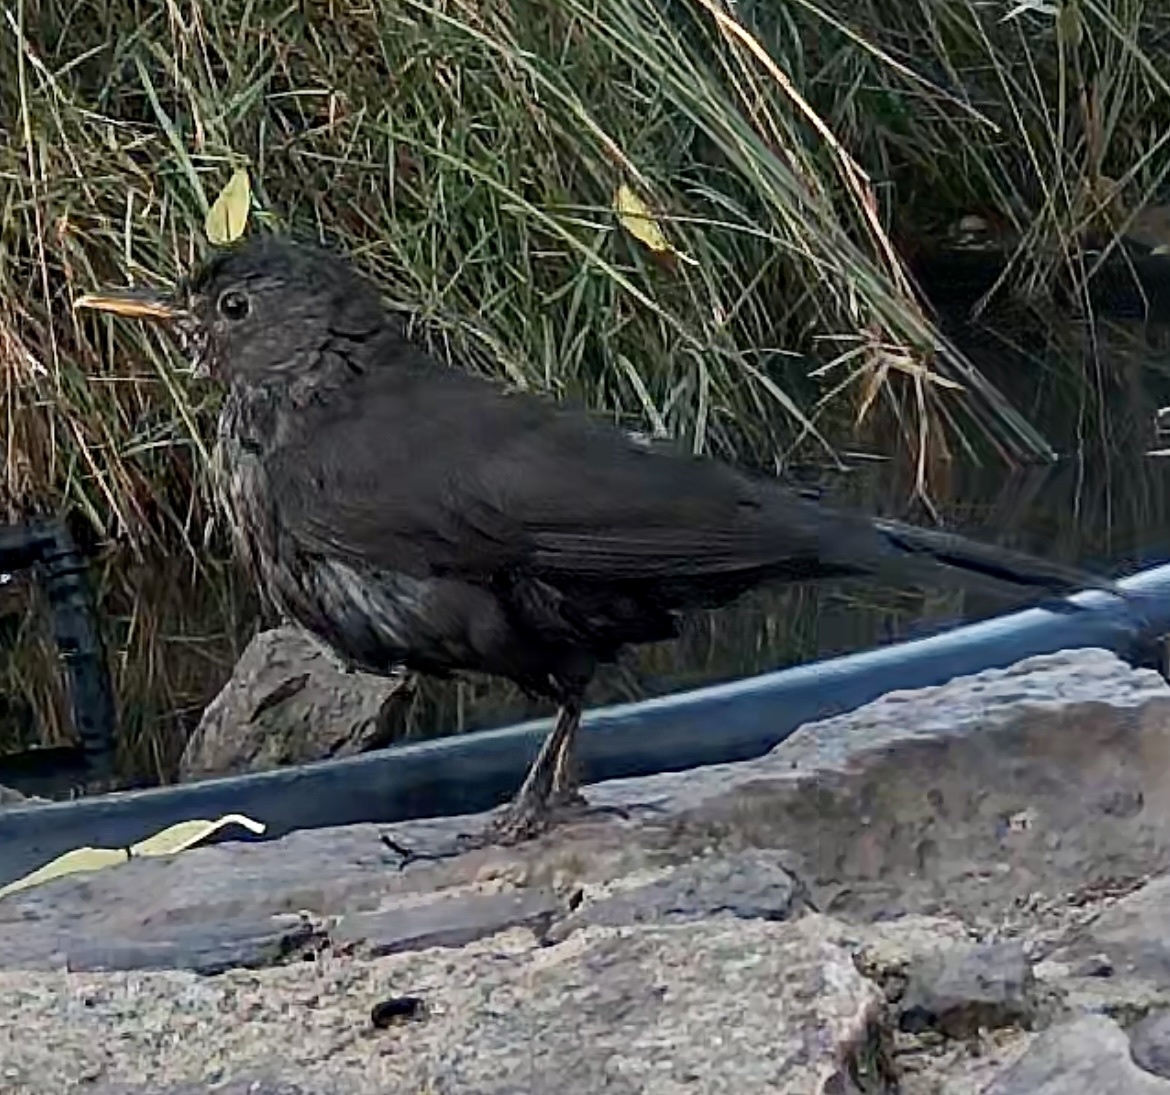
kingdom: Animalia
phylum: Chordata
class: Aves
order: Passeriformes
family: Turdidae
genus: Turdus
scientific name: Turdus merula
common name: Common blackbird
